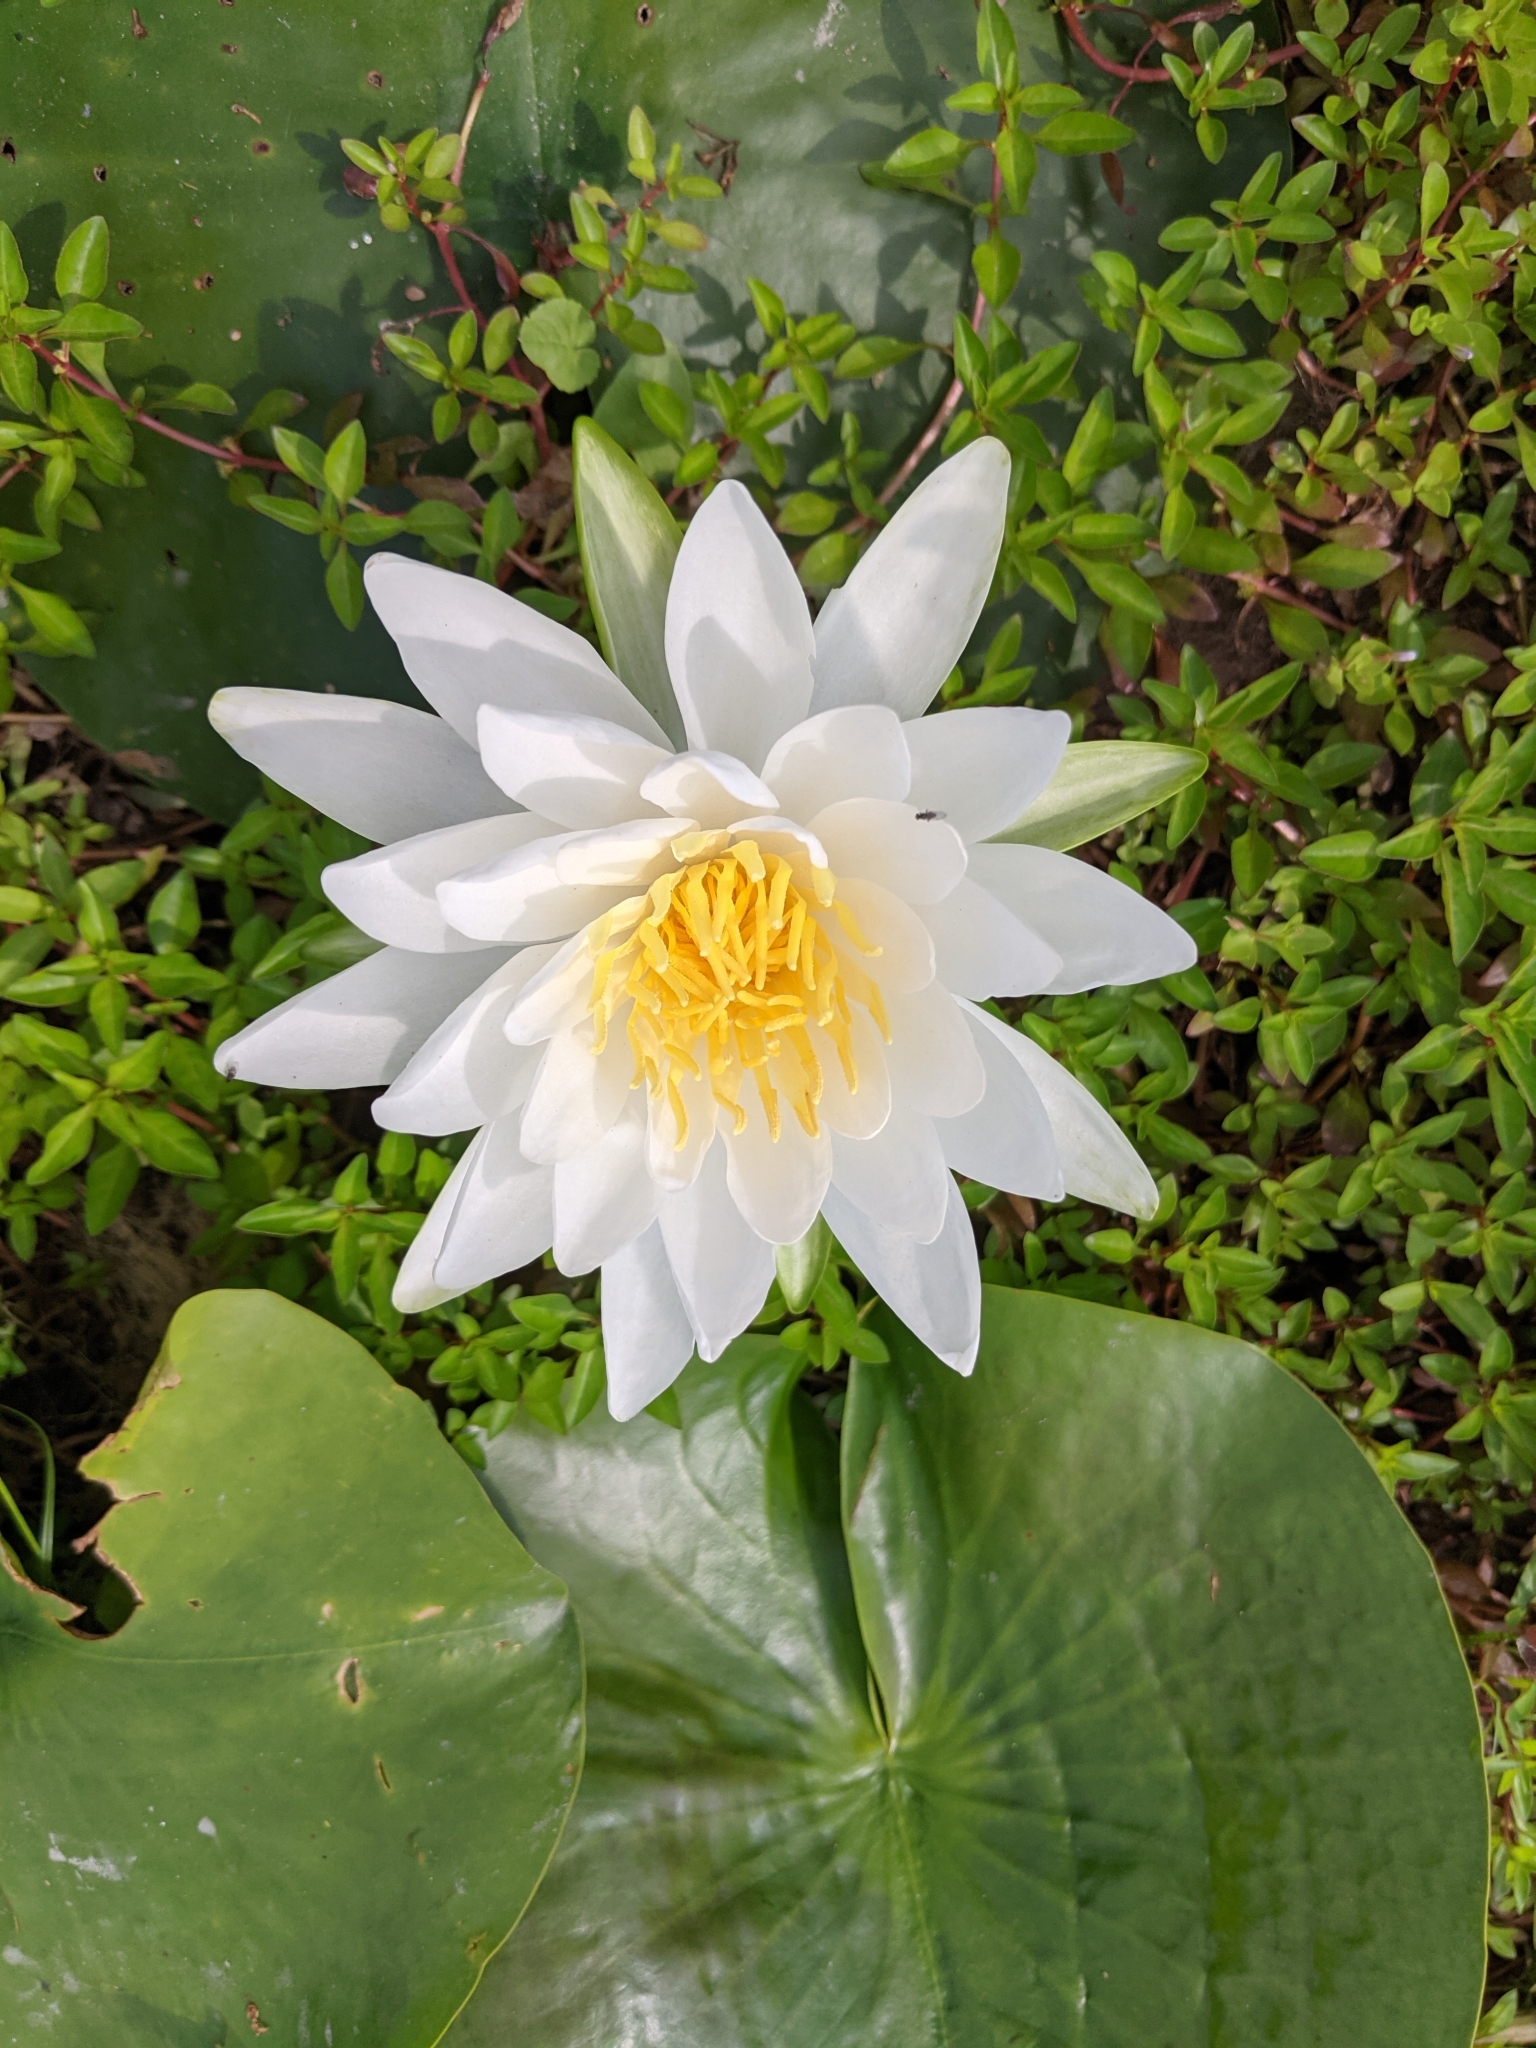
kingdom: Plantae
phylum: Tracheophyta
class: Magnoliopsida
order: Nymphaeales
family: Nymphaeaceae
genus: Nymphaea
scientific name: Nymphaea odorata
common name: Fragrant water-lily
